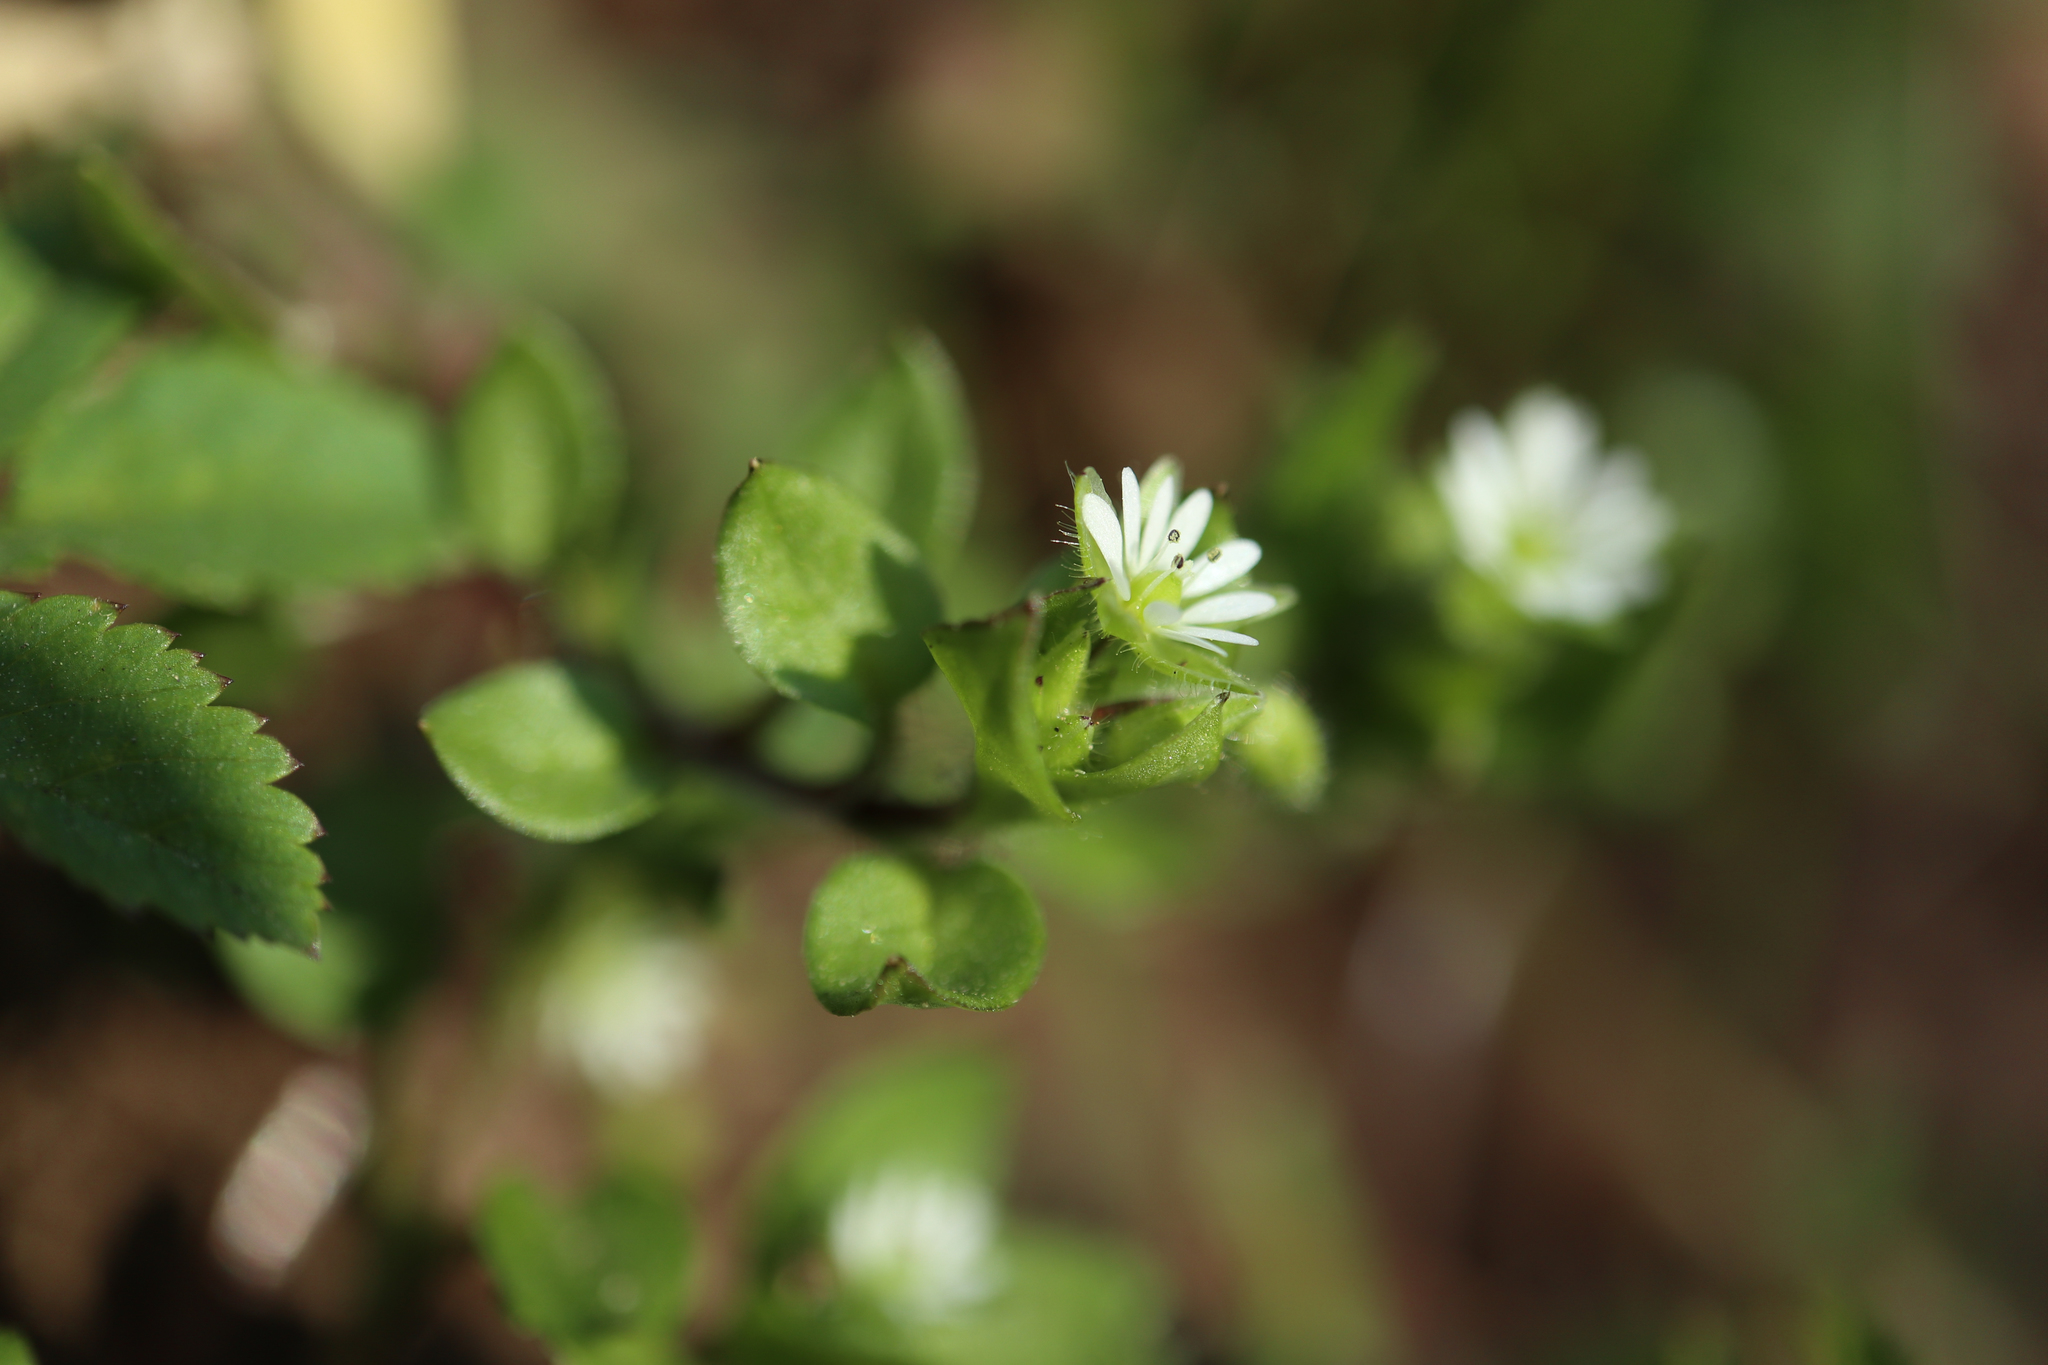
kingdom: Plantae
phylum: Tracheophyta
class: Magnoliopsida
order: Caryophyllales
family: Caryophyllaceae
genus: Stellaria
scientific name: Stellaria media
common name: Common chickweed
